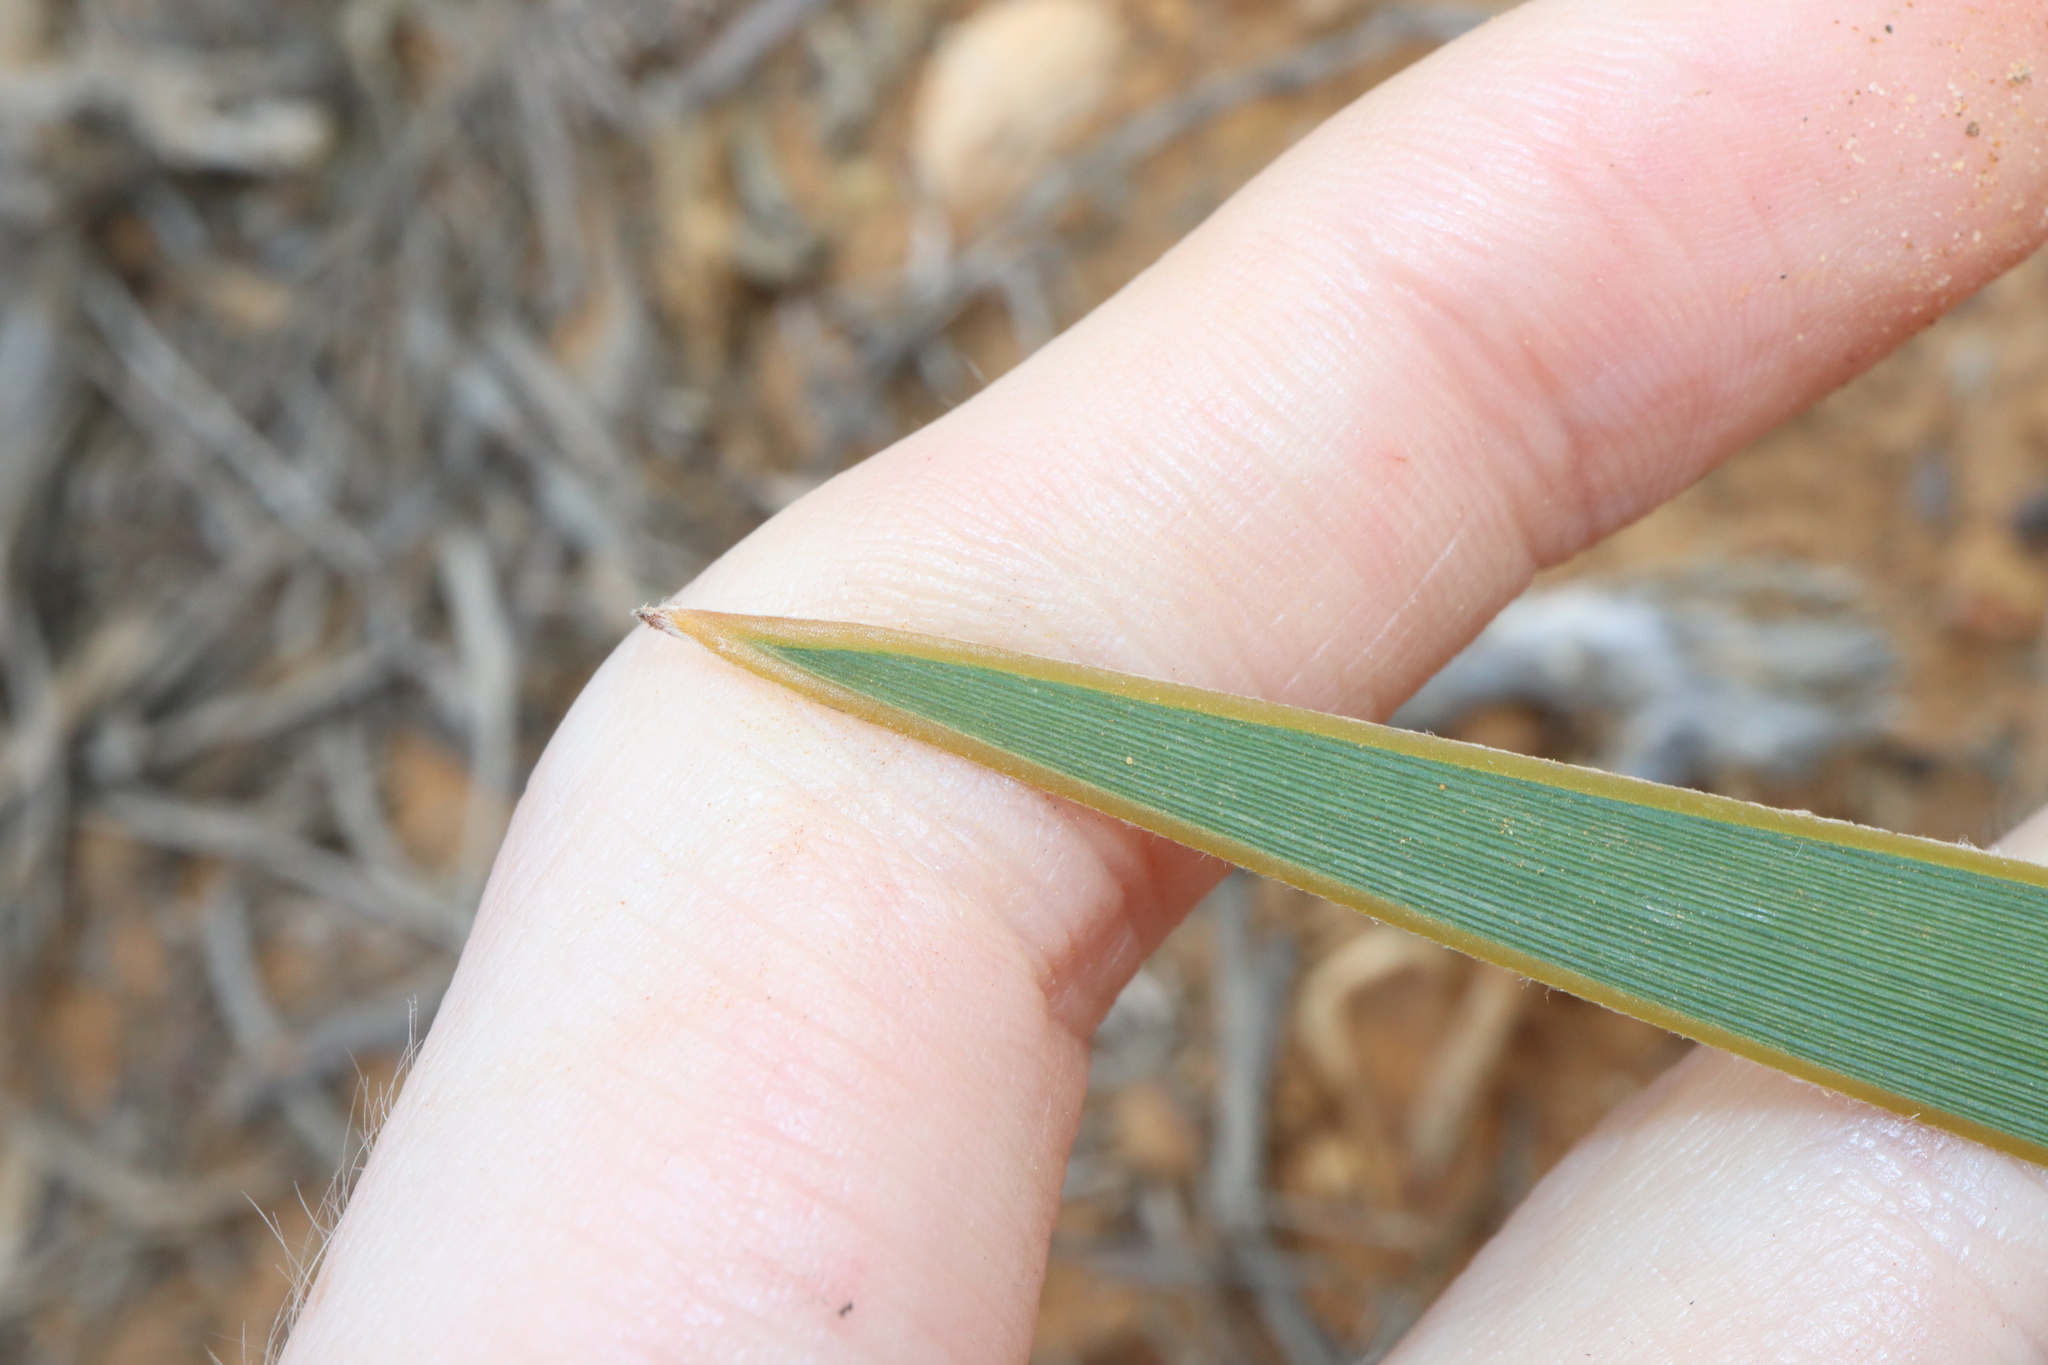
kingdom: Plantae
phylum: Tracheophyta
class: Liliopsida
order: Asparagales
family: Iridaceae
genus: Patersonia
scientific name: Patersonia limbata
